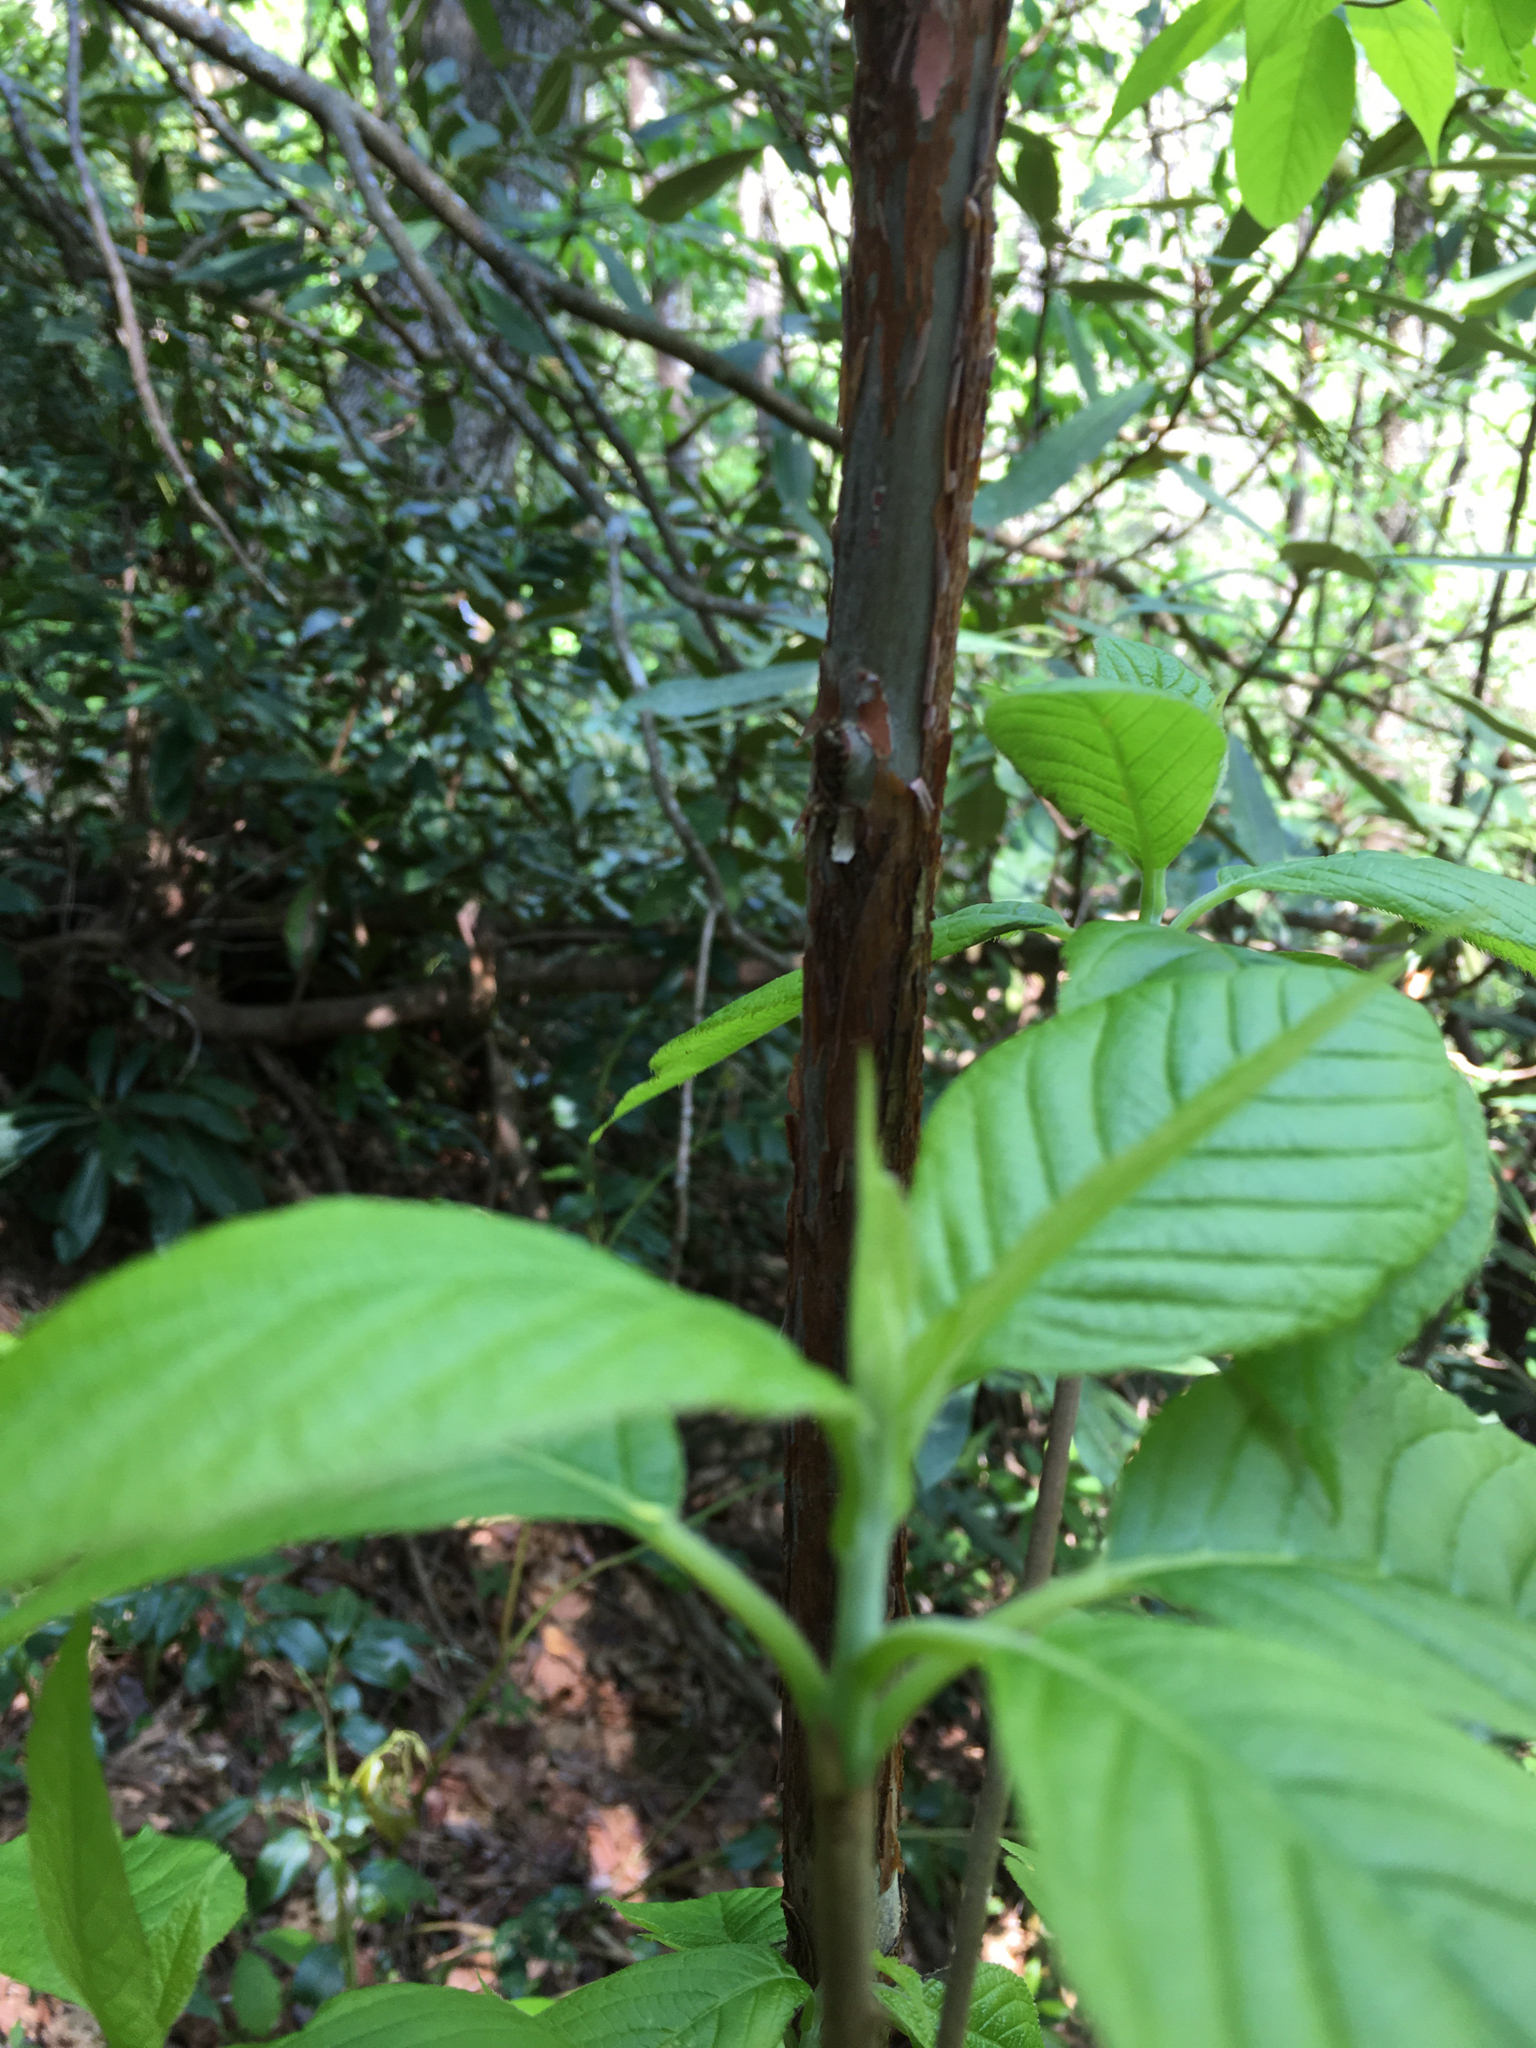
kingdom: Plantae
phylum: Tracheophyta
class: Magnoliopsida
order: Ericales
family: Clethraceae
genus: Clethra
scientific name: Clethra acuminata
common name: Mountain sweet pepperbush
